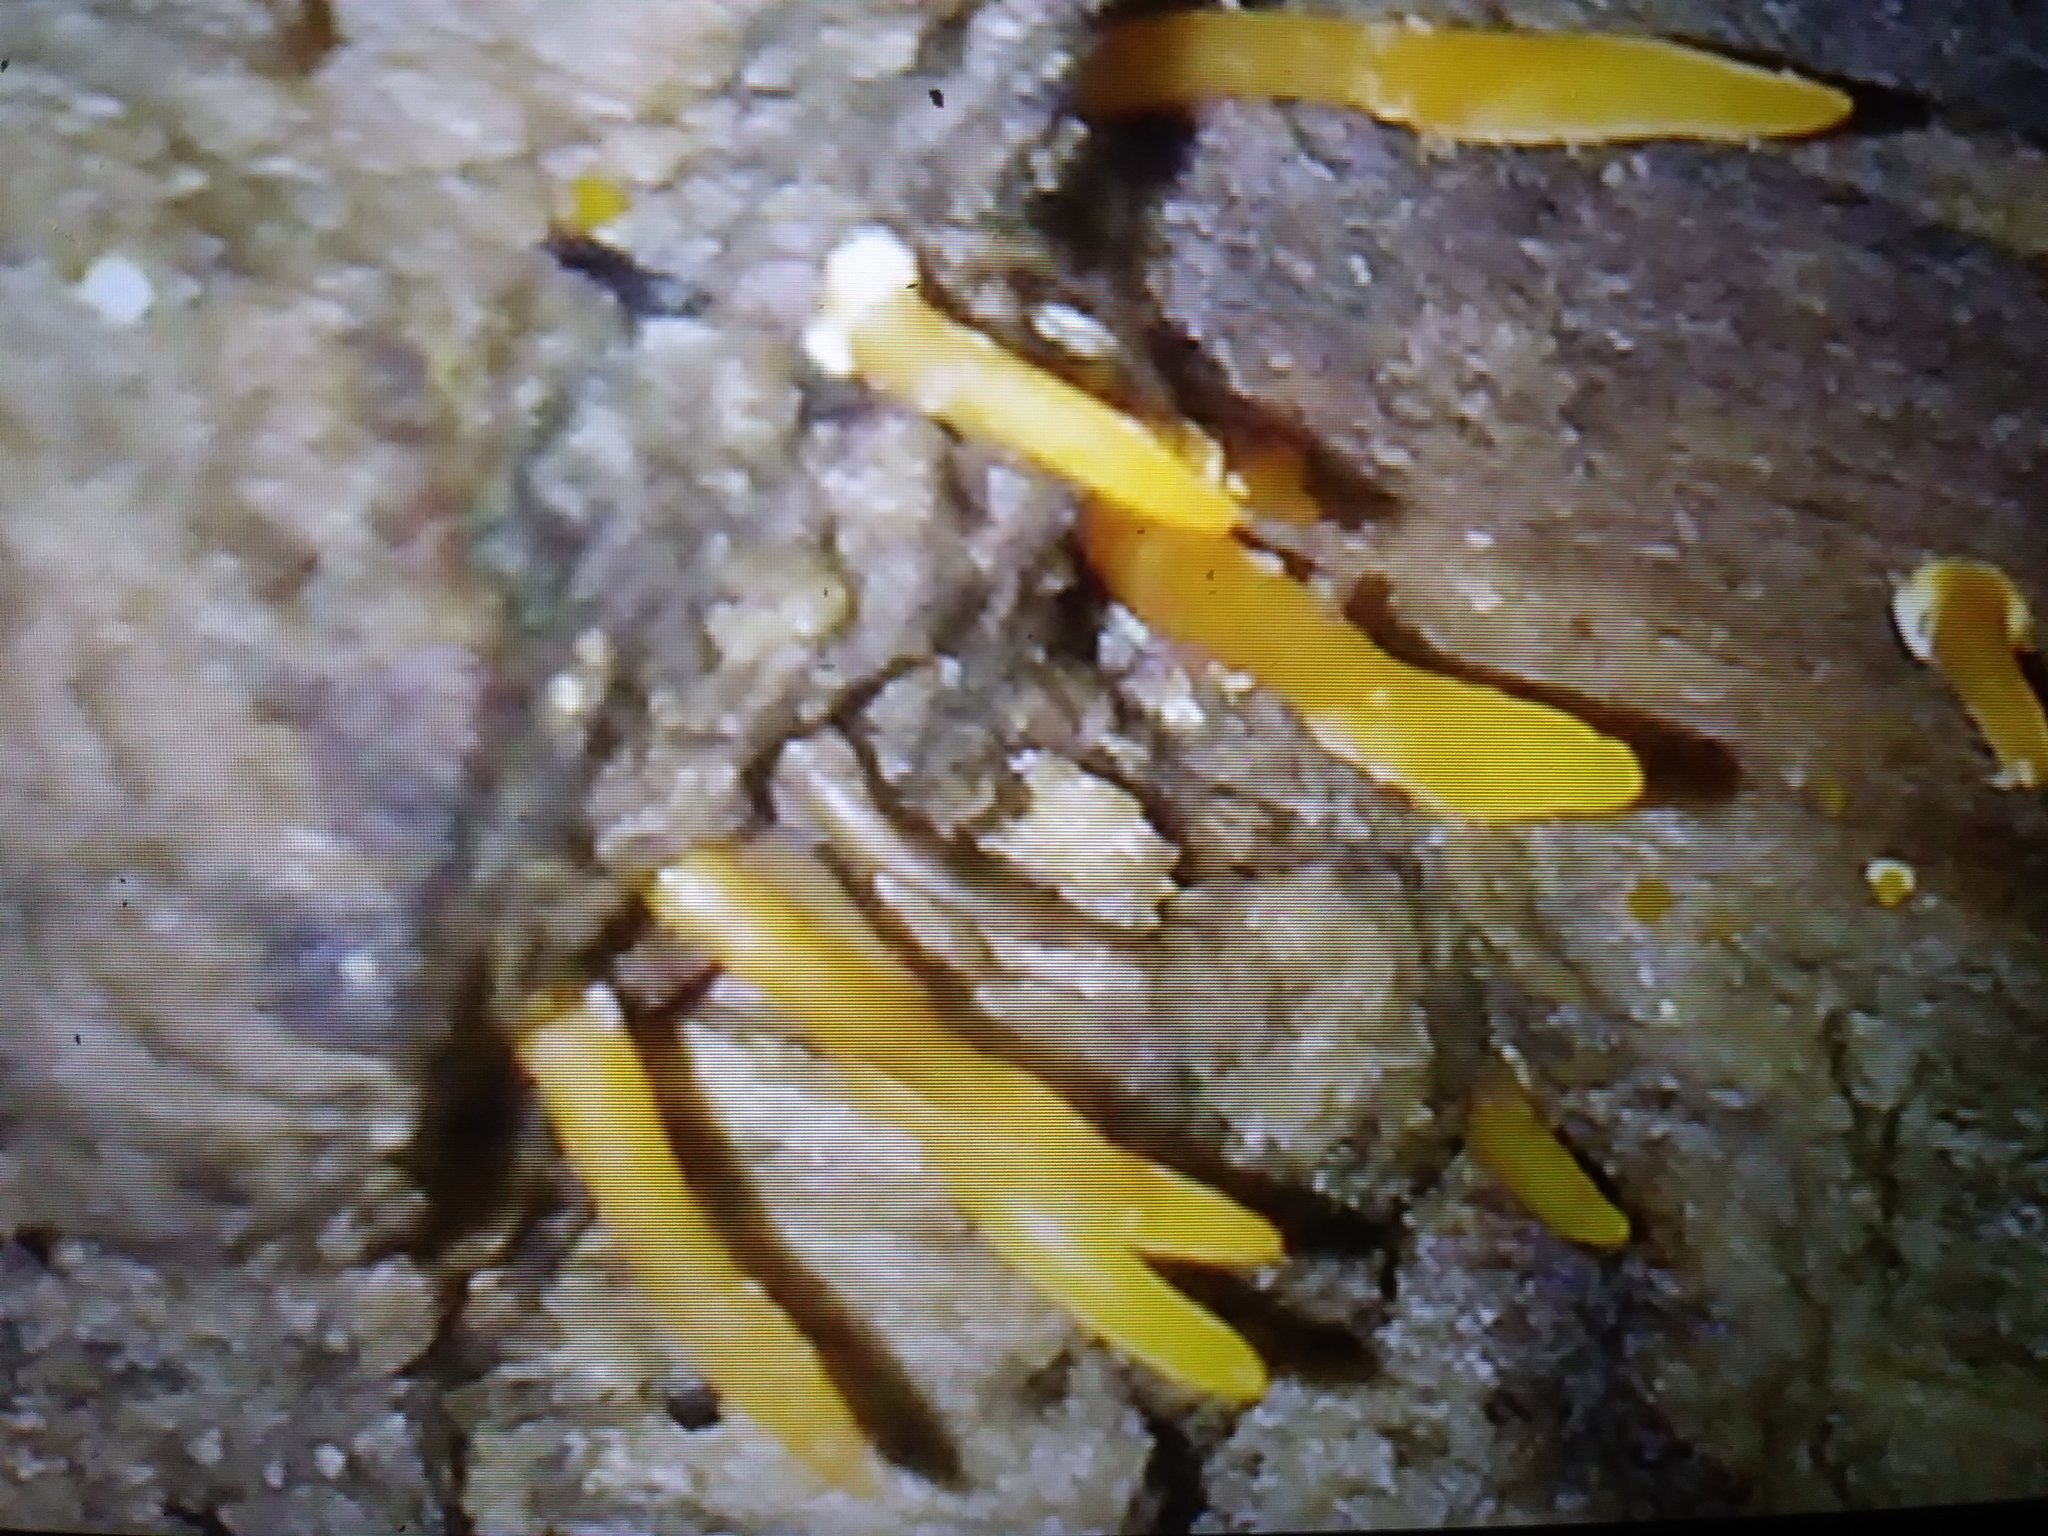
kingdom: Fungi
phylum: Basidiomycota
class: Dacrymycetes
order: Dacrymycetales
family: Dacrymycetaceae
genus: Calocera
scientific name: Calocera cornea
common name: Small stagshorn
